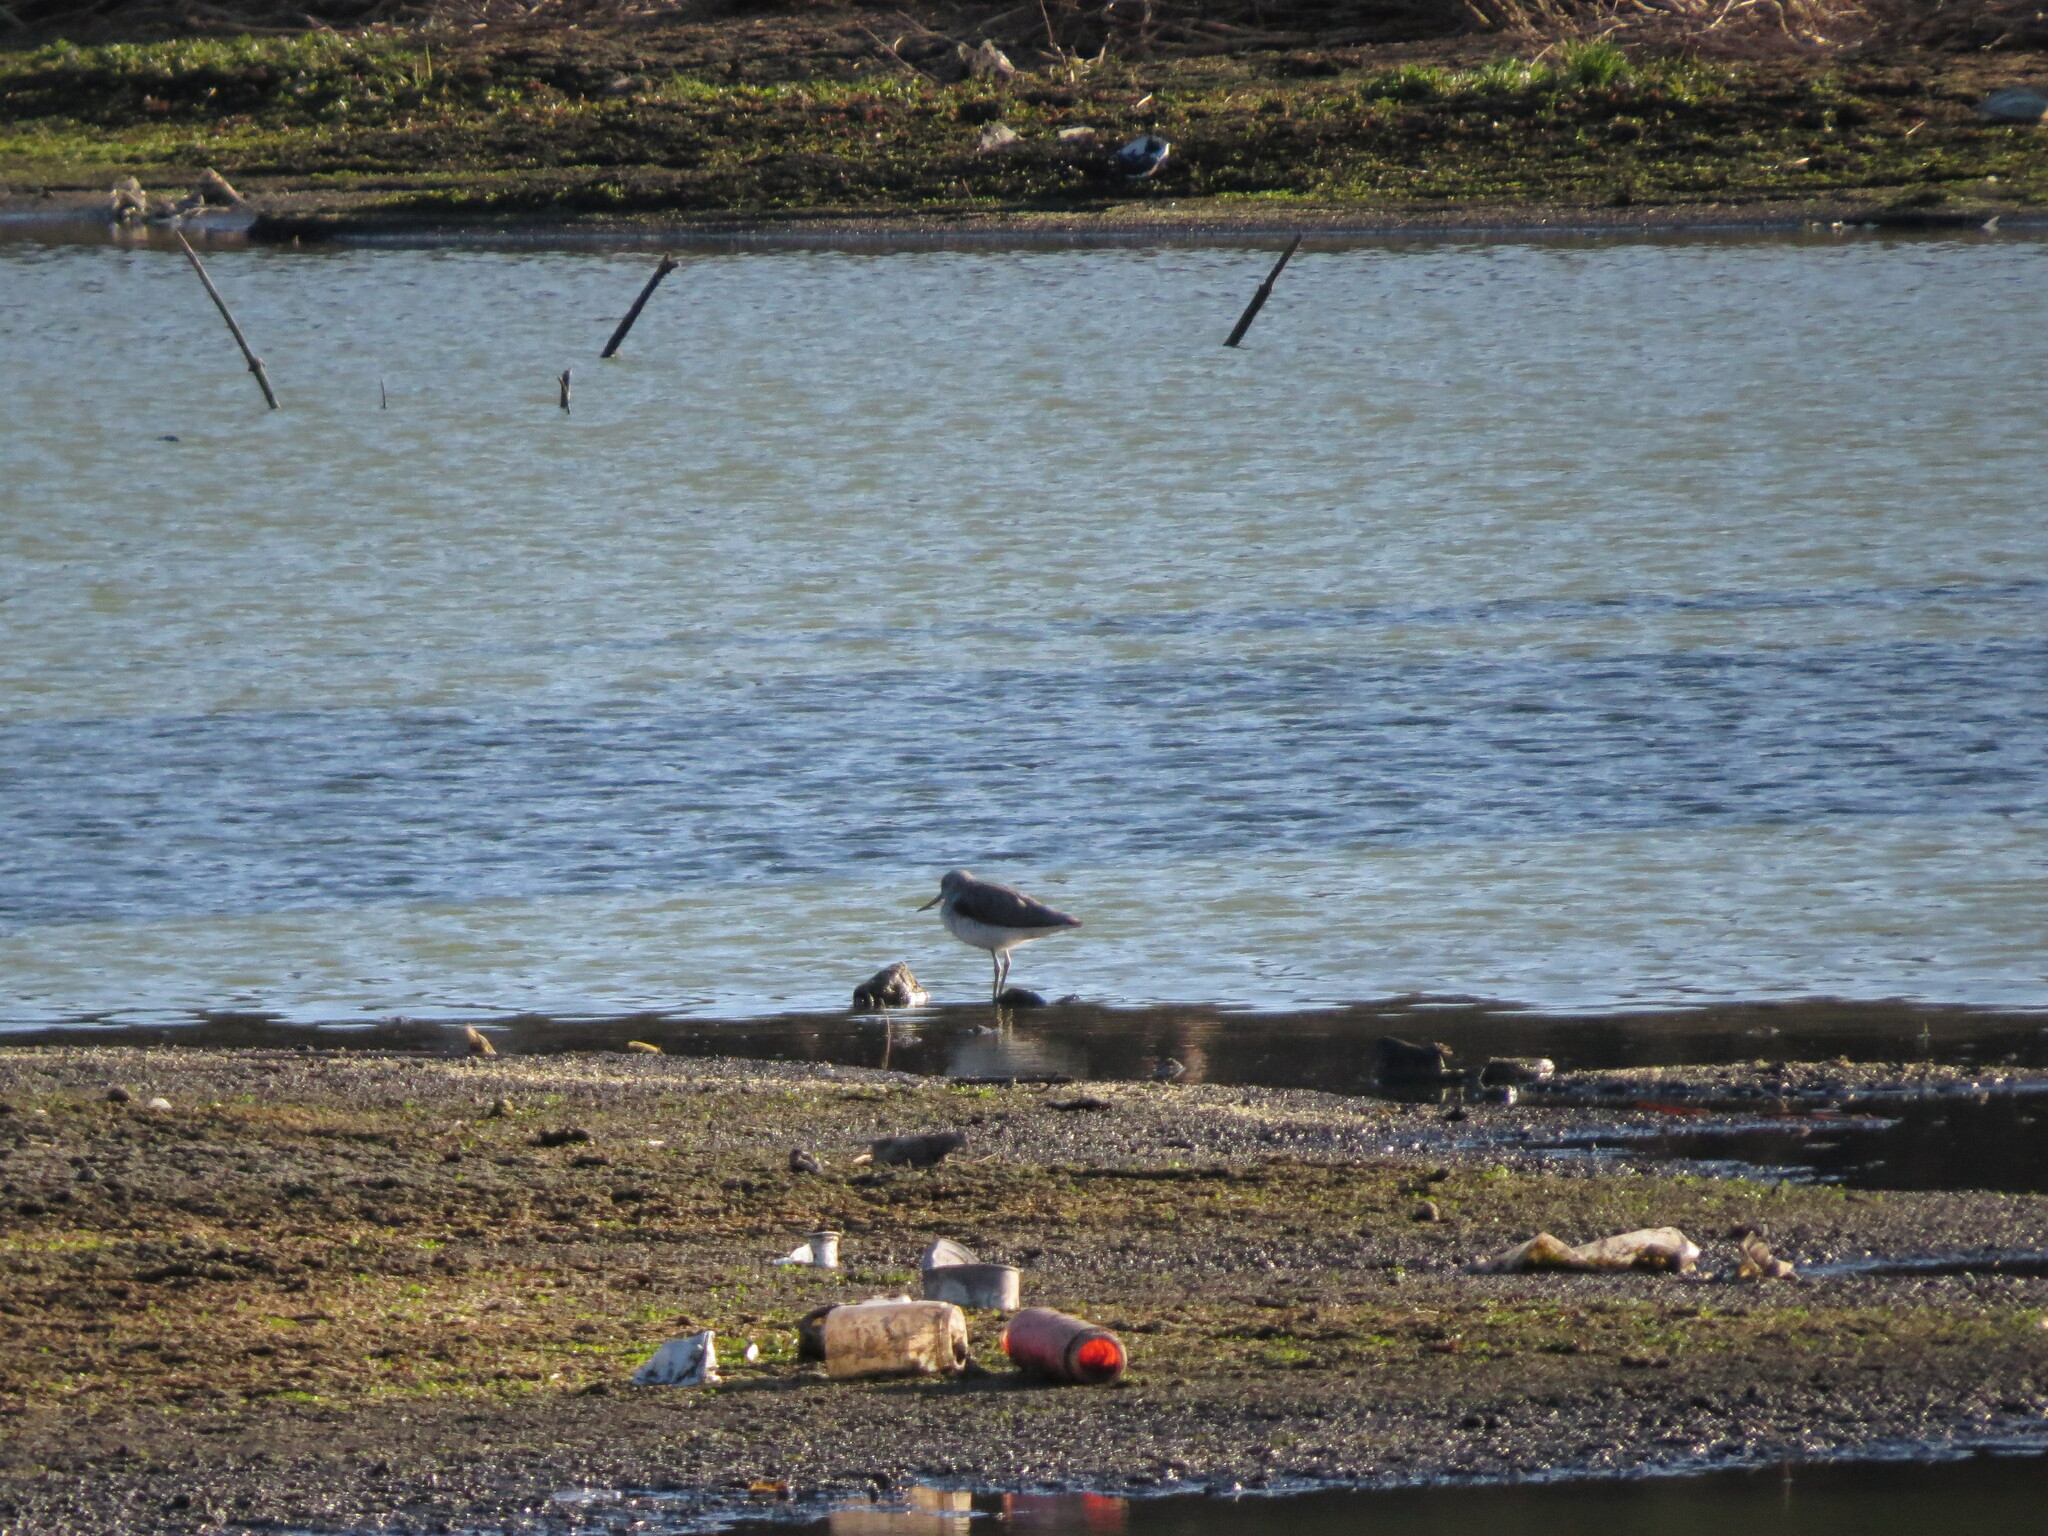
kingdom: Animalia
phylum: Chordata
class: Aves
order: Charadriiformes
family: Scolopacidae
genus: Tringa
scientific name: Tringa nebularia
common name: Common greenshank
